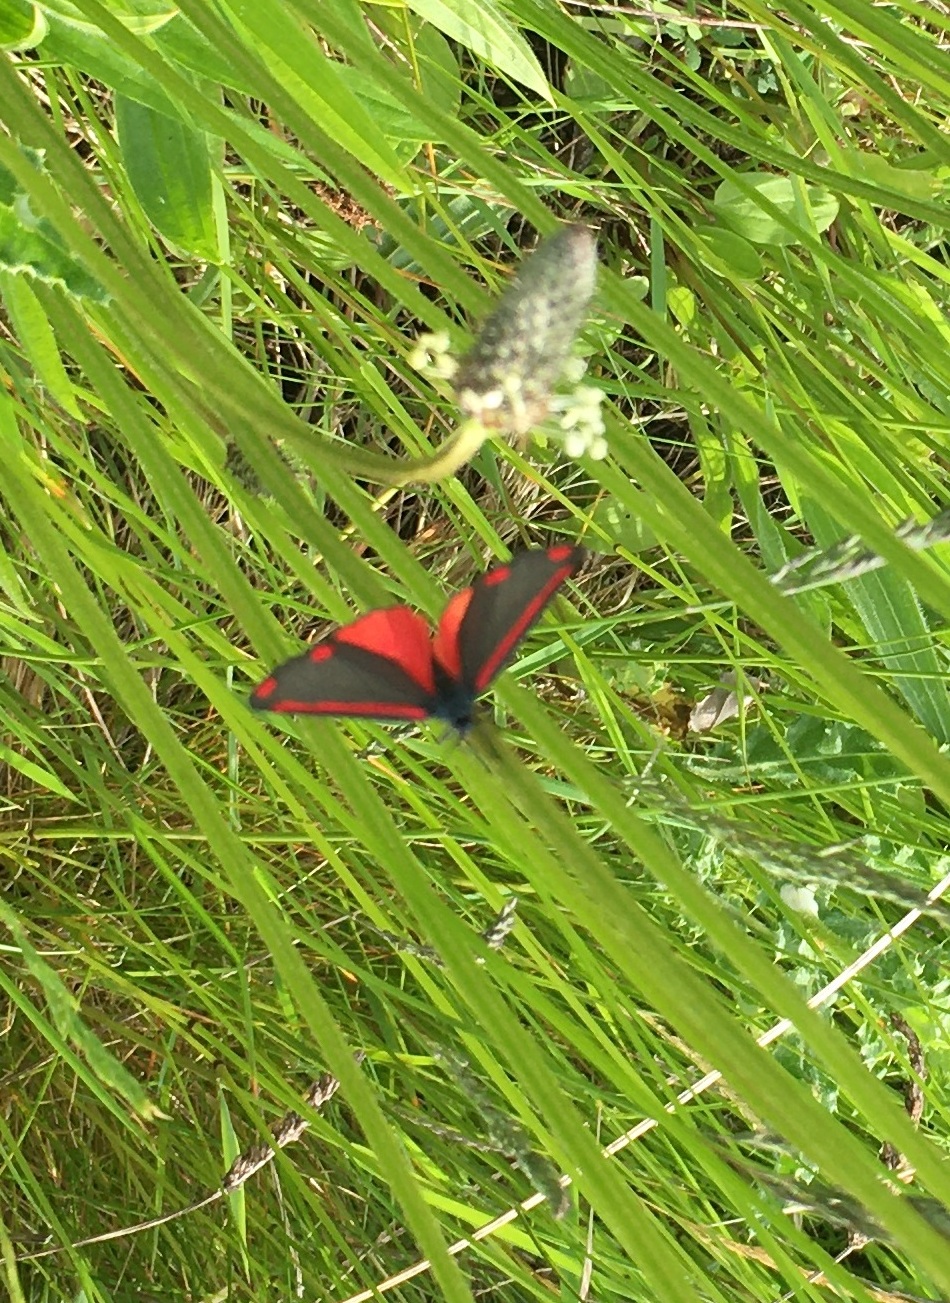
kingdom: Animalia
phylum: Arthropoda
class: Insecta
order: Lepidoptera
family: Erebidae
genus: Tyria
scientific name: Tyria jacobaeae
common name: Cinnabar
